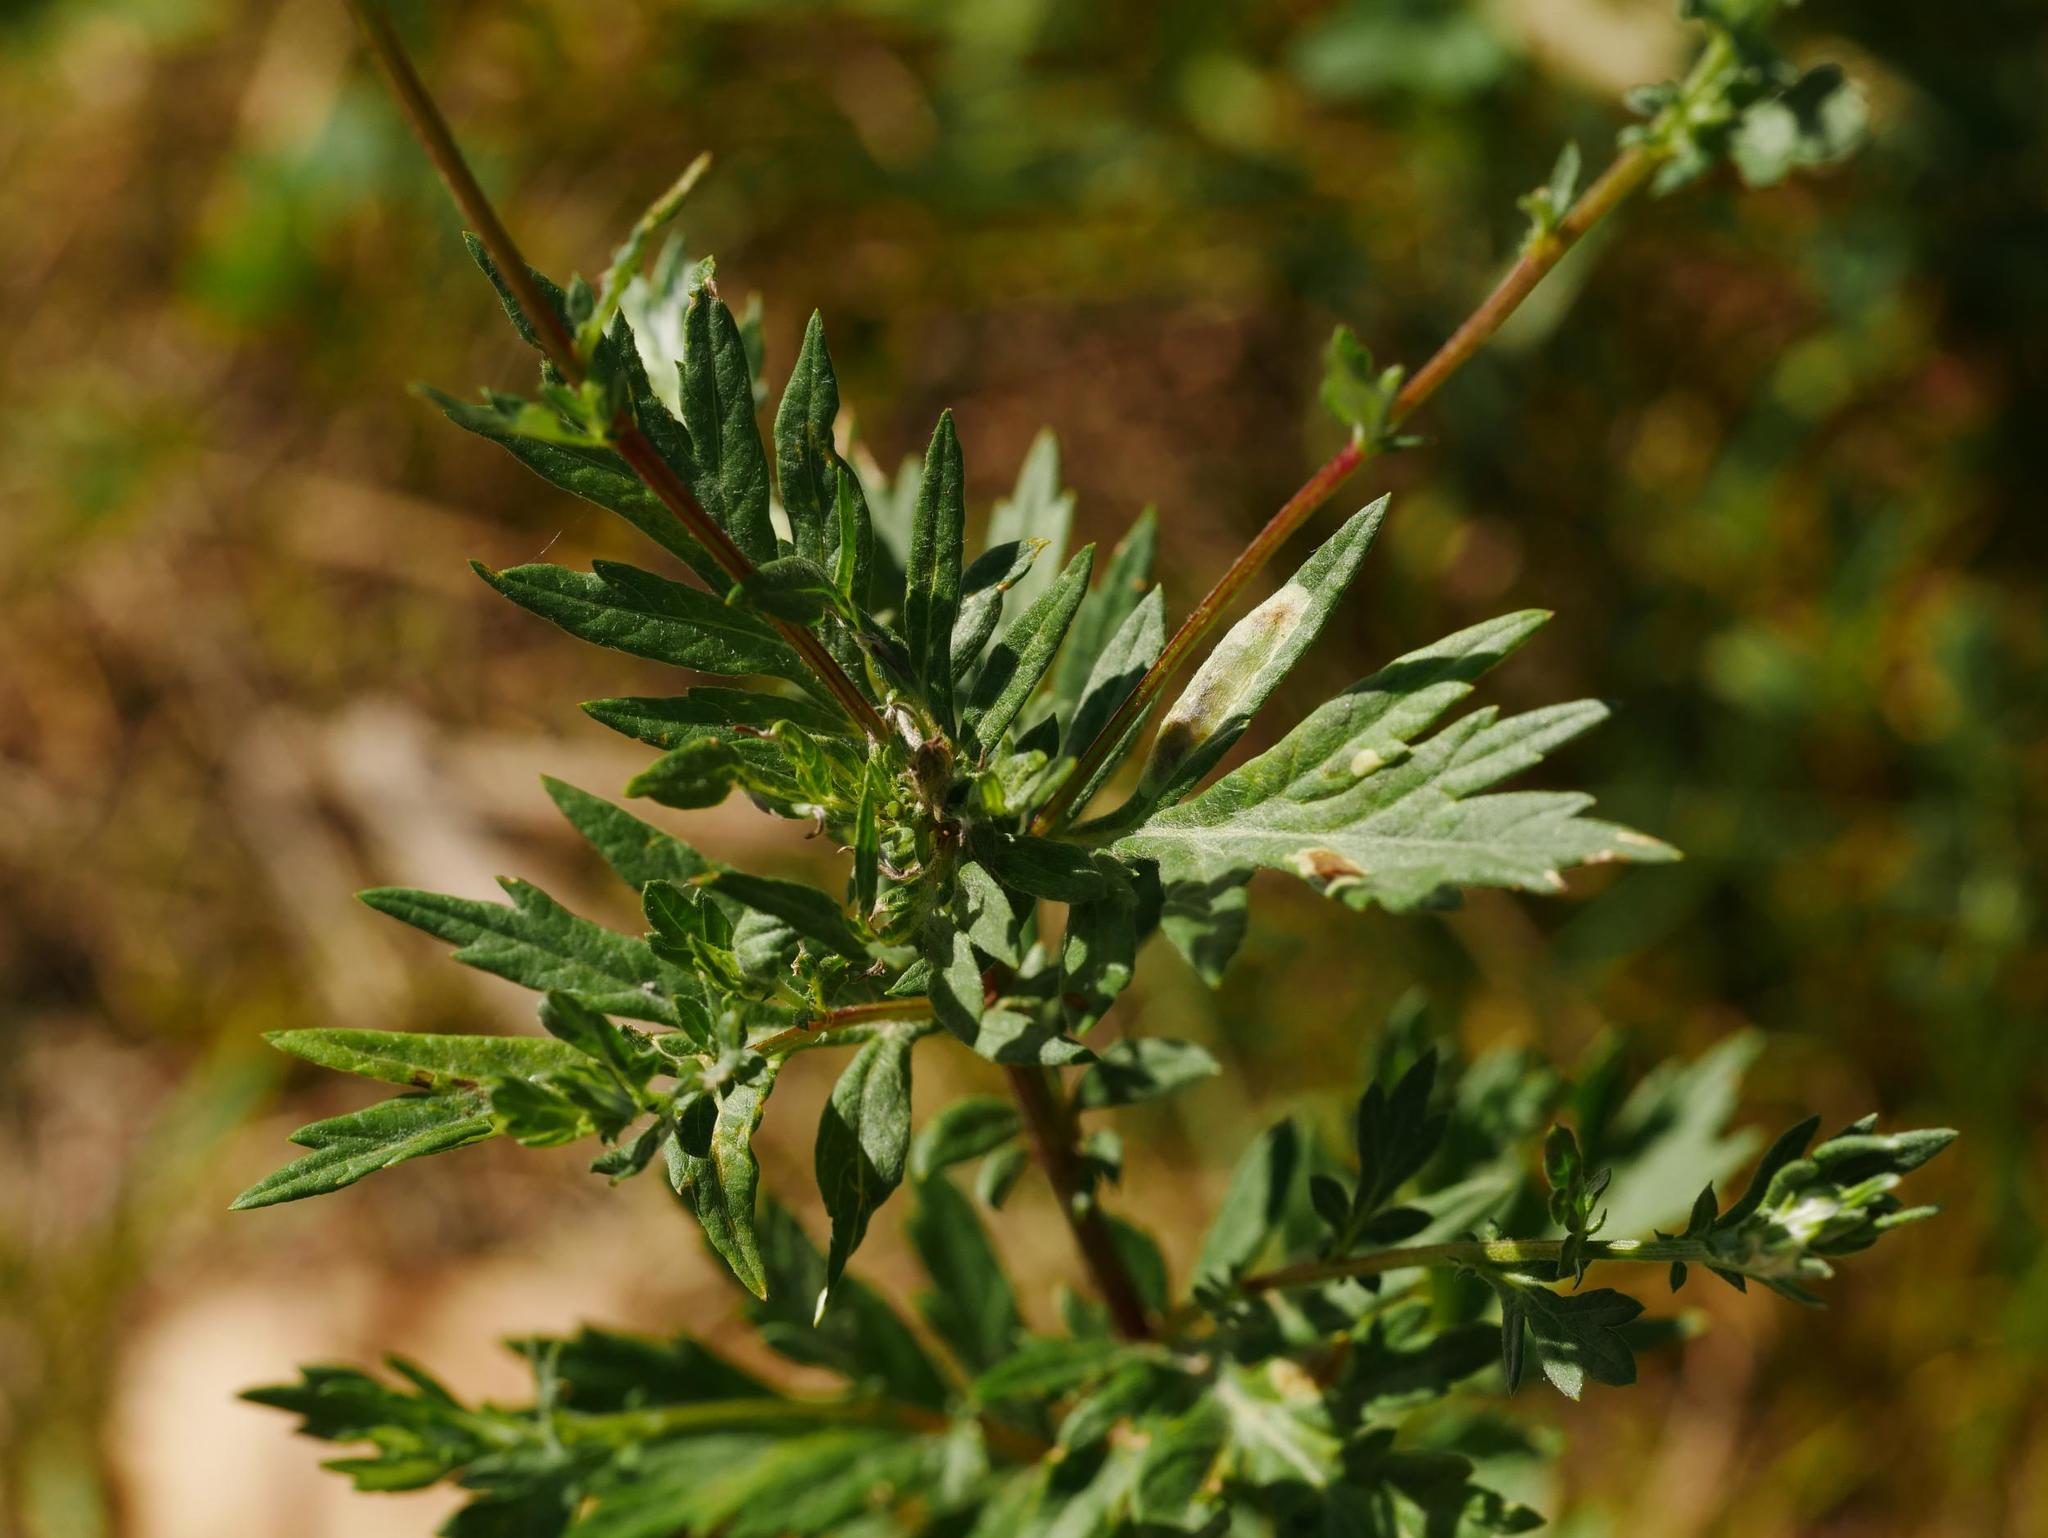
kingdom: Plantae
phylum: Tracheophyta
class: Magnoliopsida
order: Asterales
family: Asteraceae
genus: Artemisia
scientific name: Artemisia vulgaris
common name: Mugwort
